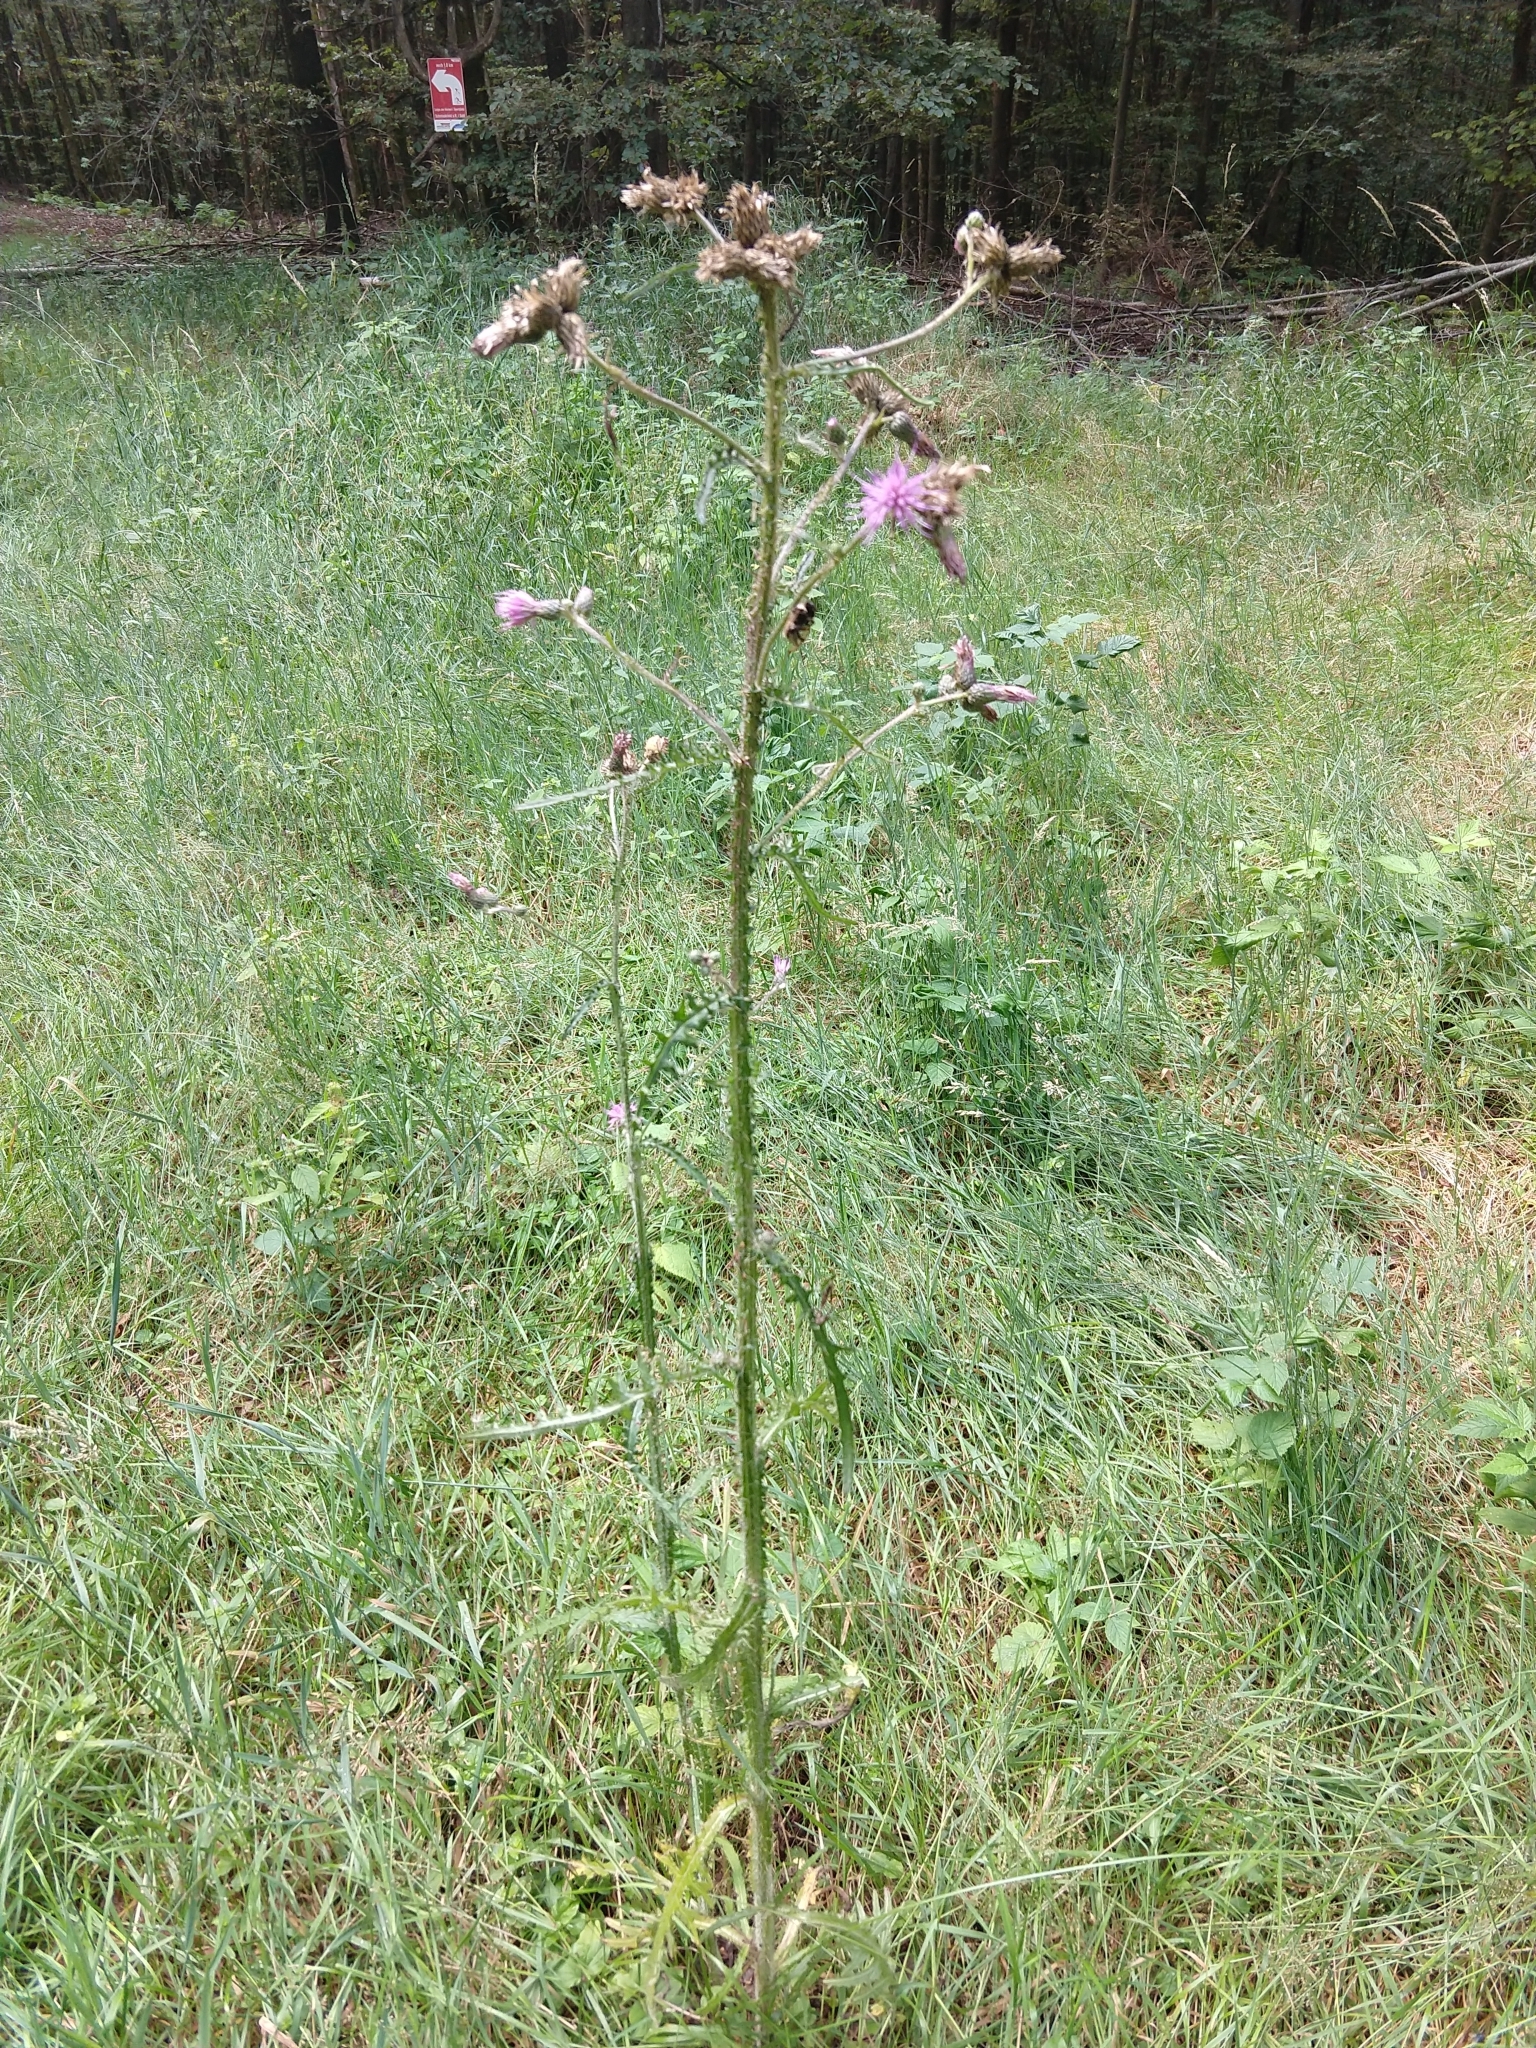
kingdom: Plantae
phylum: Tracheophyta
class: Magnoliopsida
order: Asterales
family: Asteraceae
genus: Cirsium
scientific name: Cirsium palustre
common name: Marsh thistle
